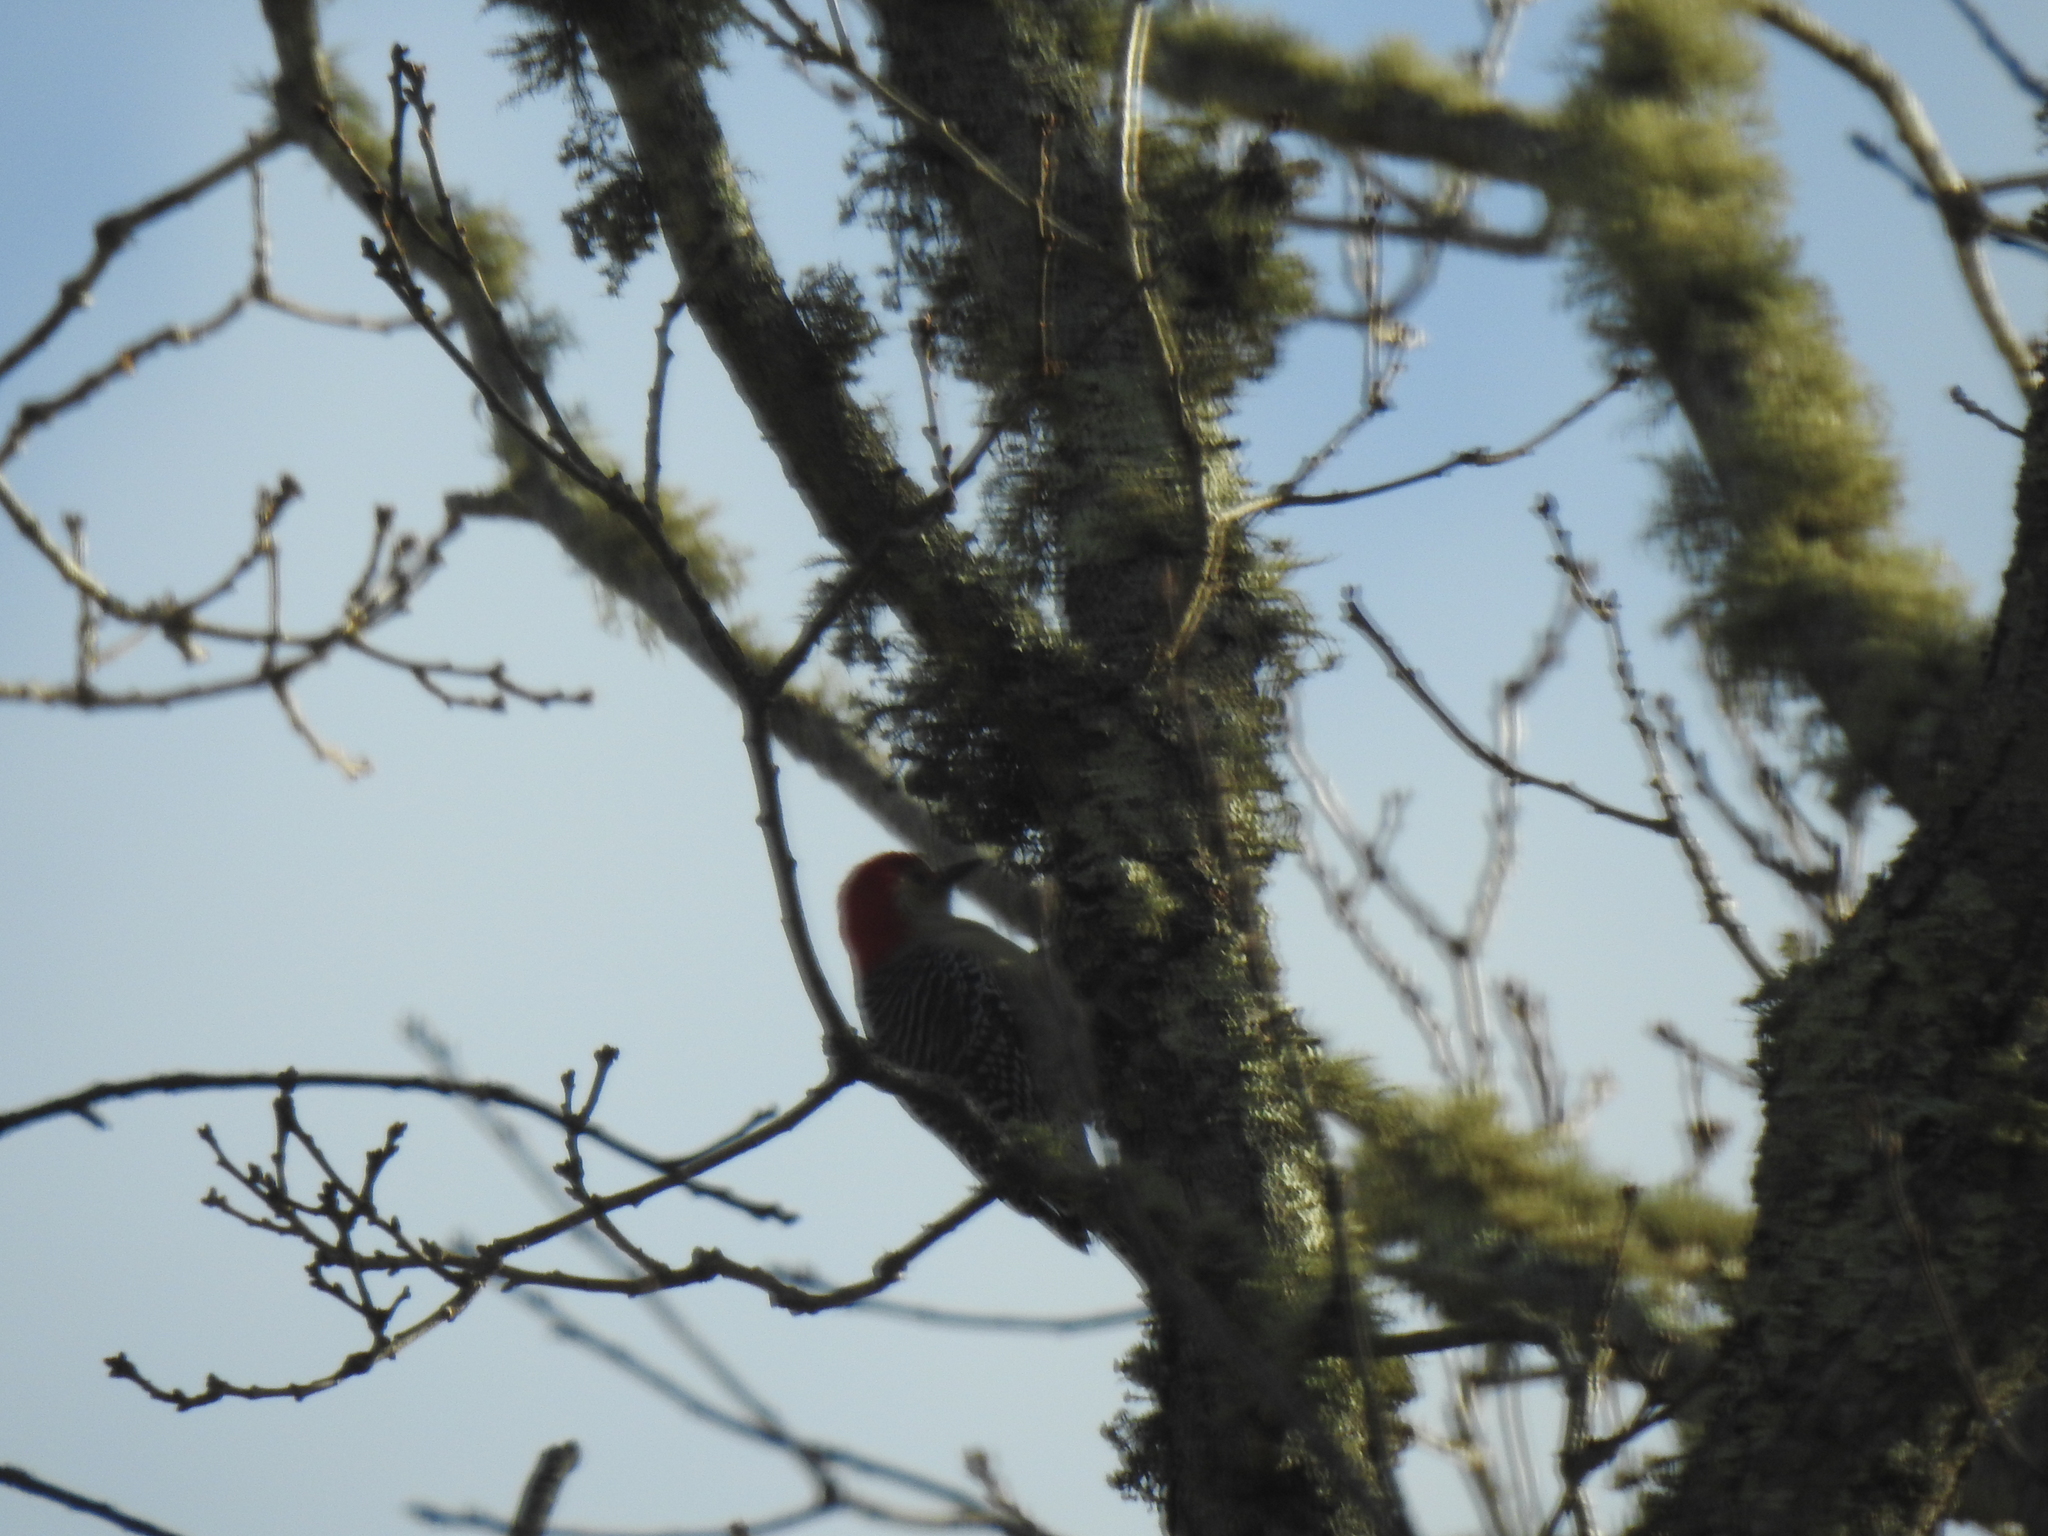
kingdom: Animalia
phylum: Chordata
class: Aves
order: Piciformes
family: Picidae
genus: Melanerpes
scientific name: Melanerpes carolinus
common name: Red-bellied woodpecker
